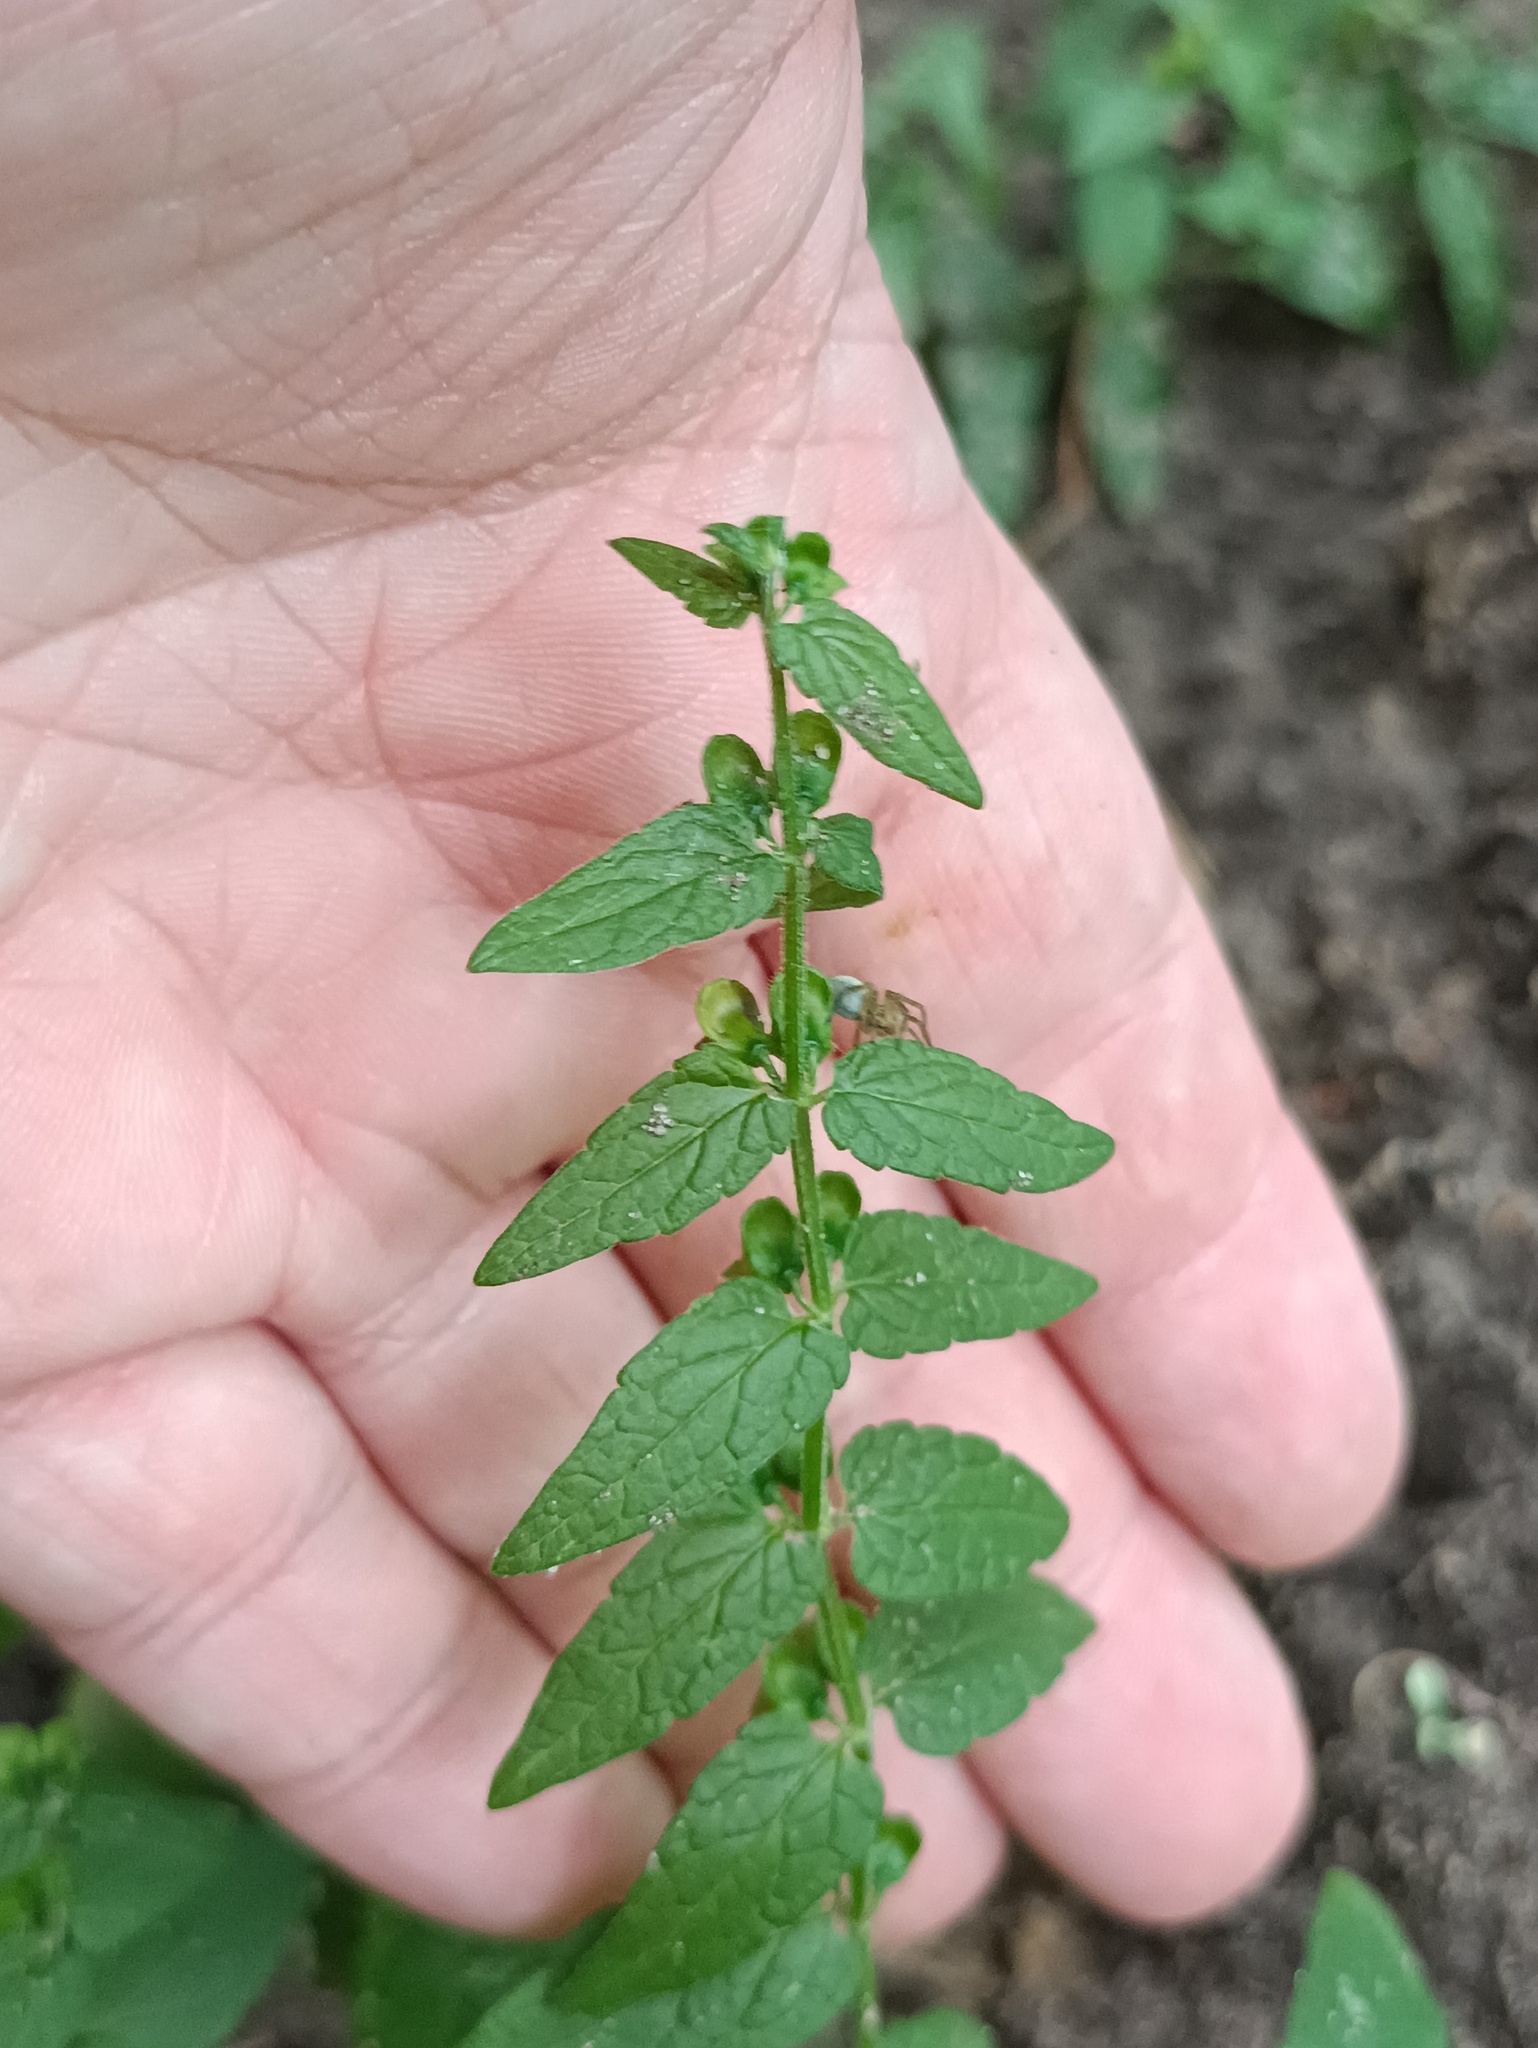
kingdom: Plantae
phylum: Tracheophyta
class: Magnoliopsida
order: Lamiales
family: Lamiaceae
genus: Scutellaria
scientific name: Scutellaria galericulata
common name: Skullcap
